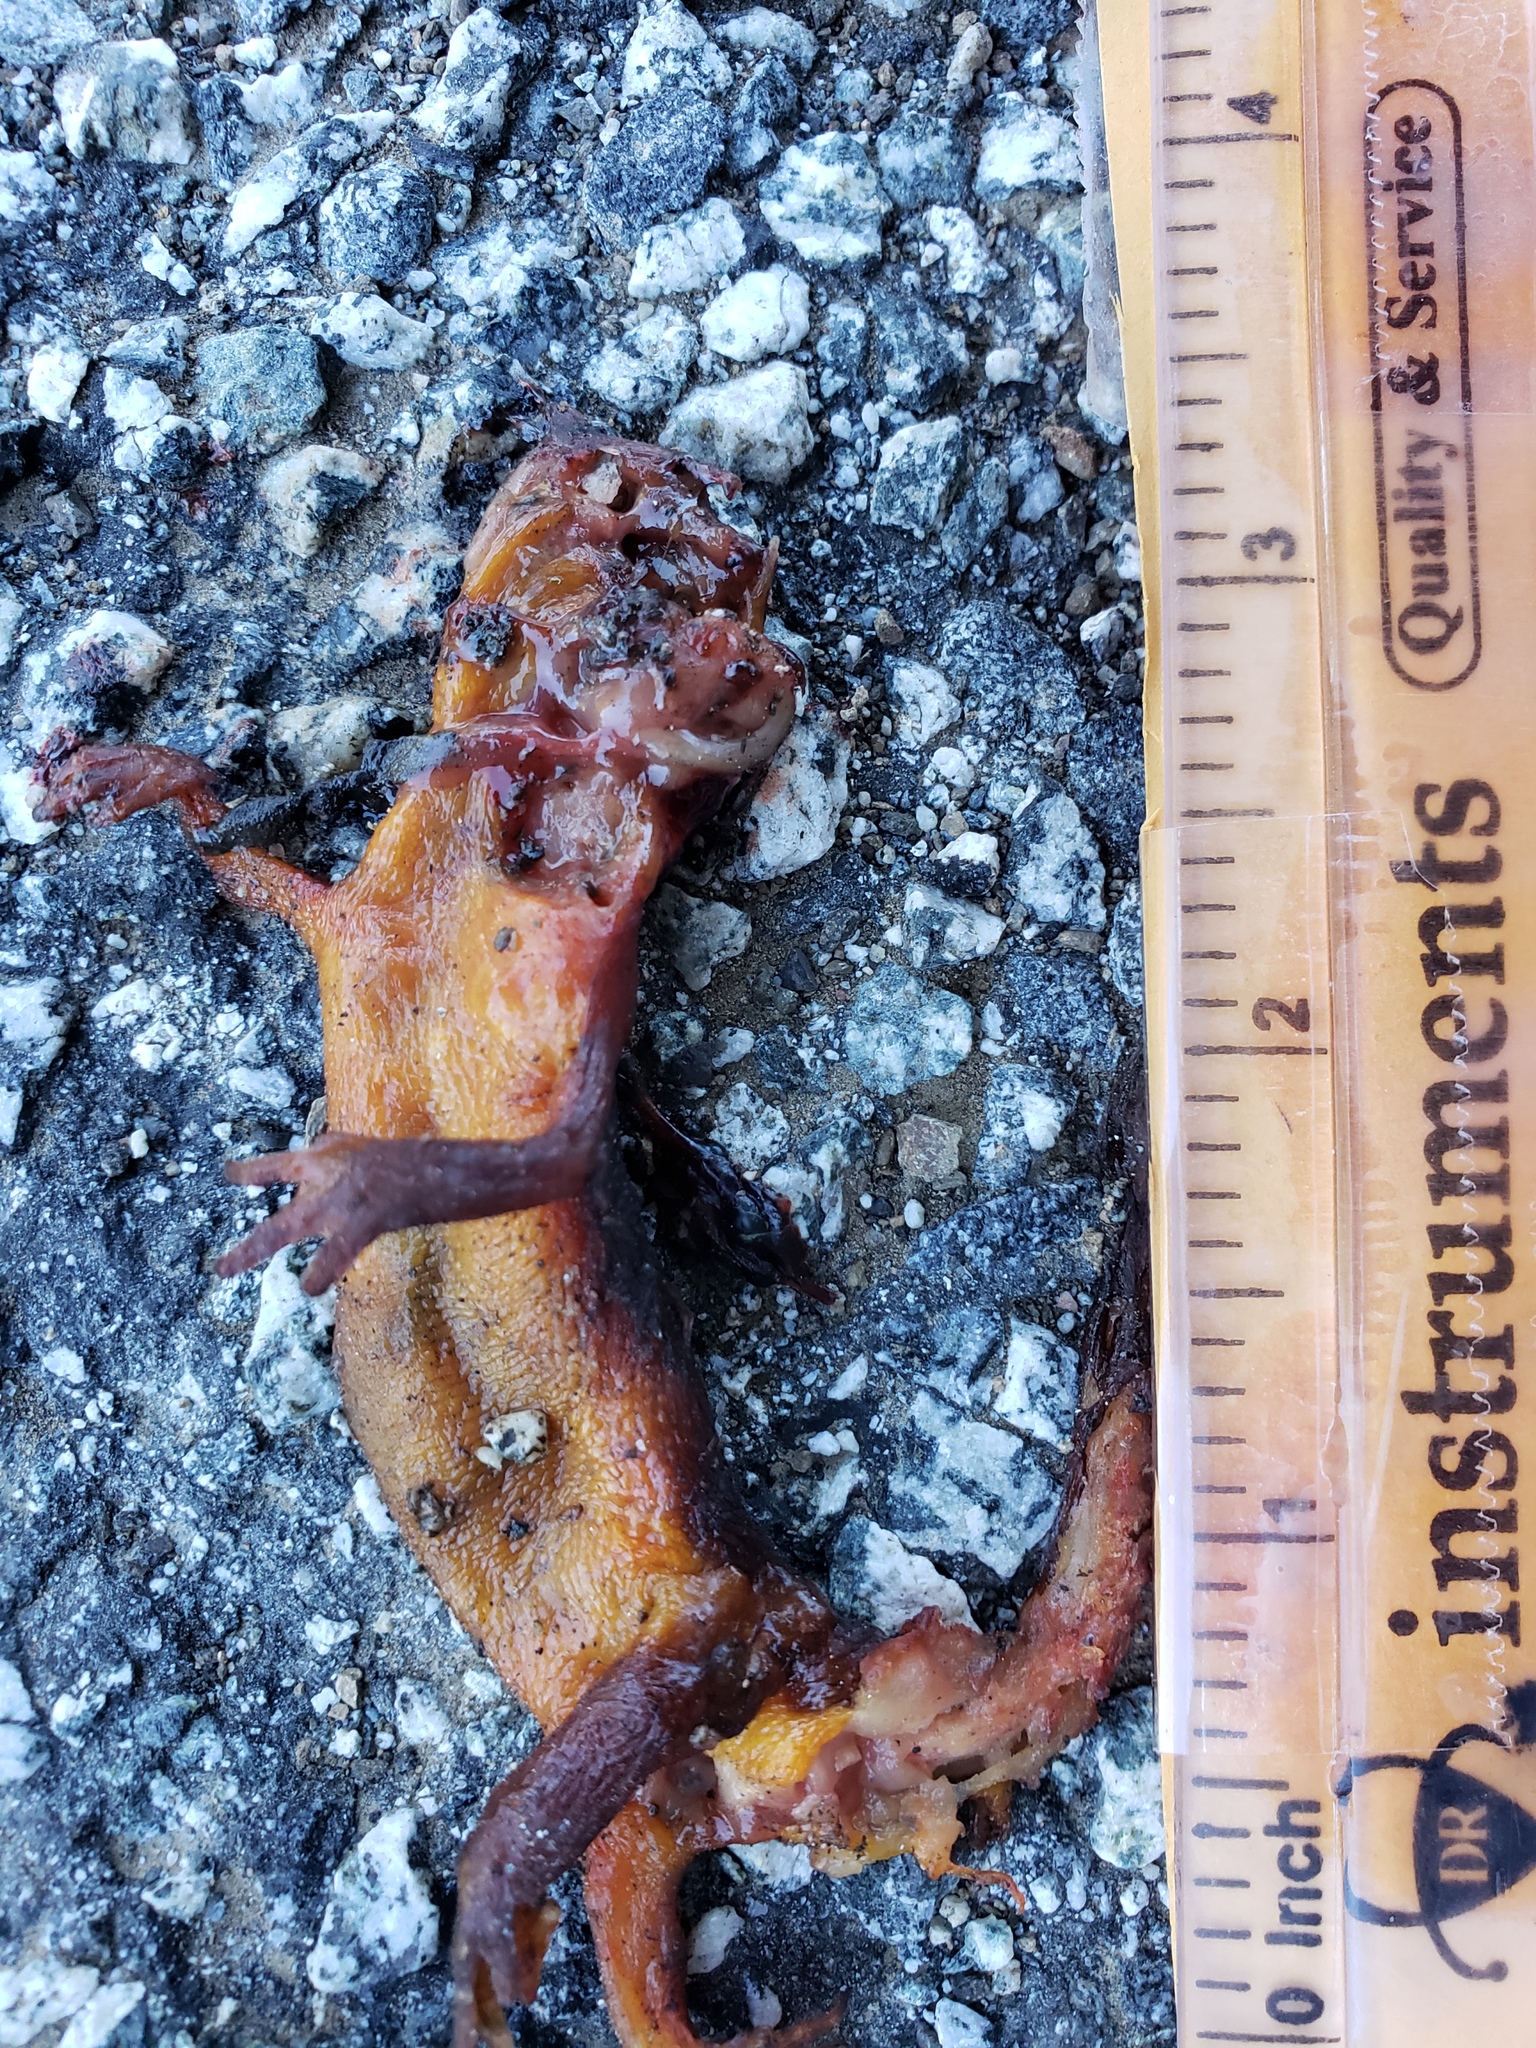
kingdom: Animalia
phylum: Chordata
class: Amphibia
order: Caudata
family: Salamandridae
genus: Taricha
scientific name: Taricha
